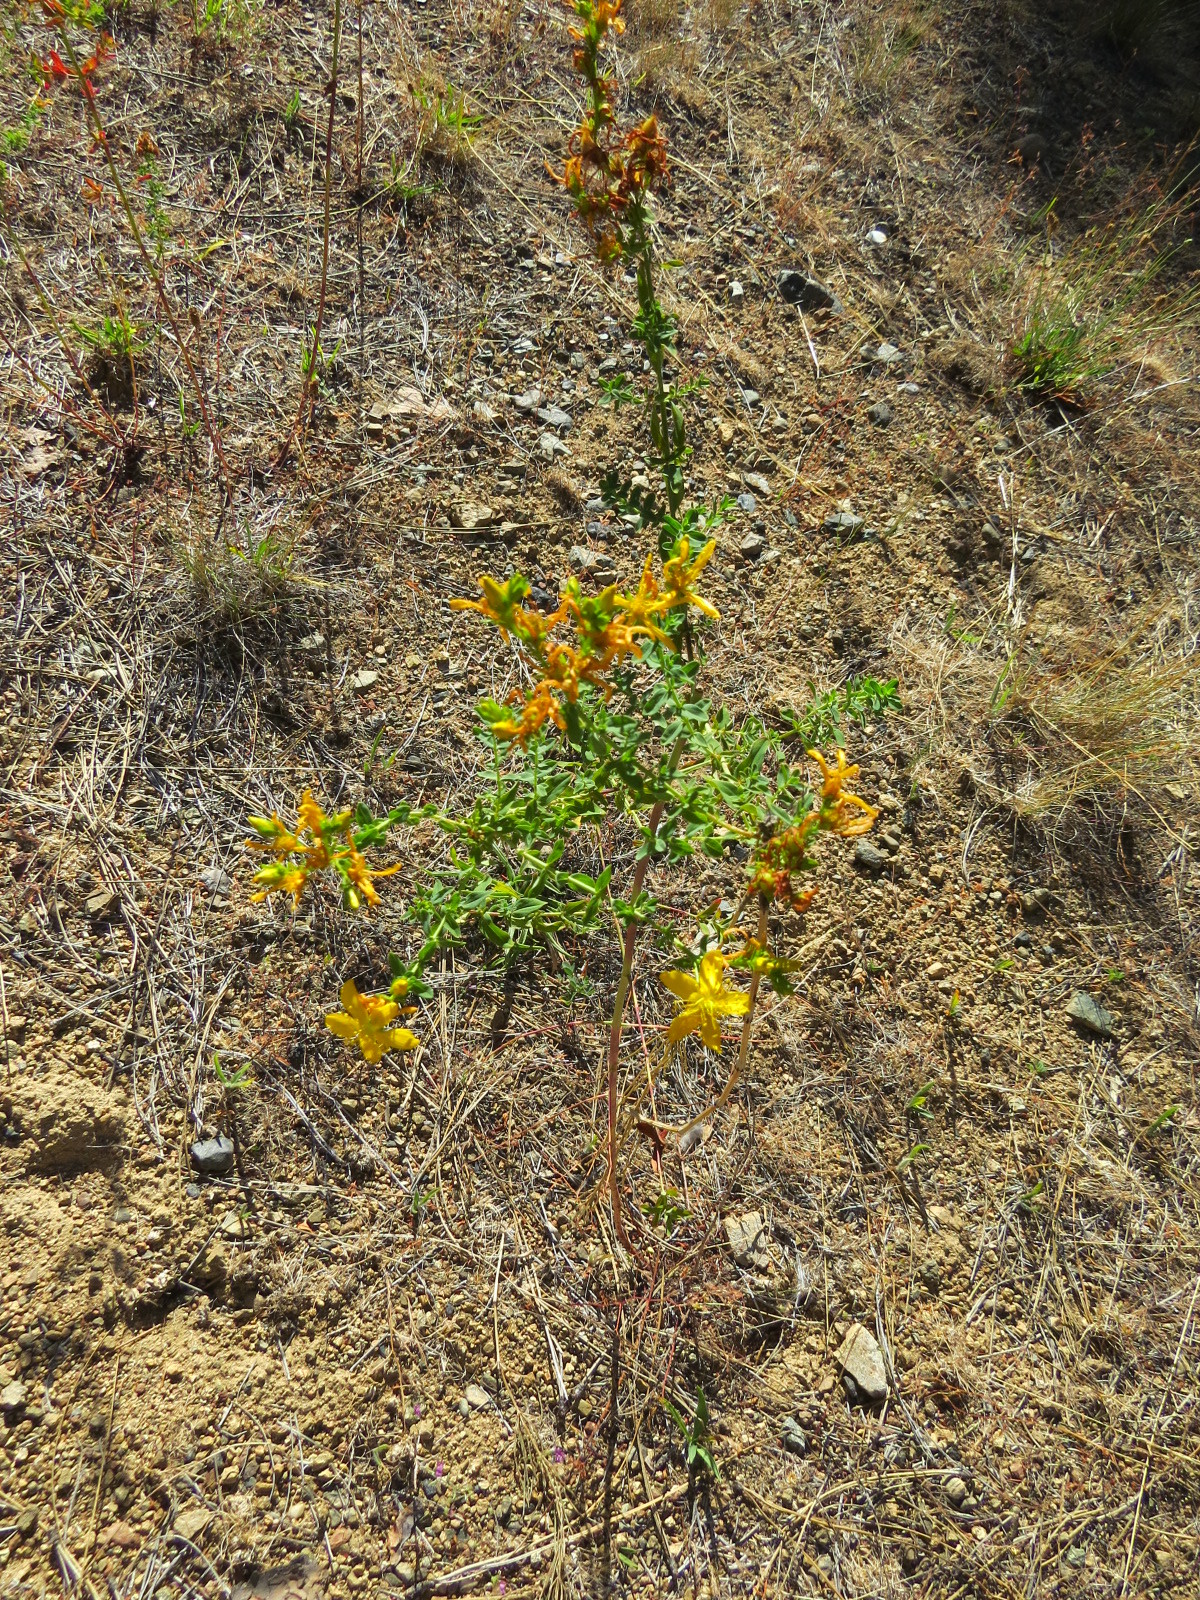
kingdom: Plantae
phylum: Tracheophyta
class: Magnoliopsida
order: Malpighiales
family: Hypericaceae
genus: Hypericum
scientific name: Hypericum perforatum
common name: Common st. johnswort
